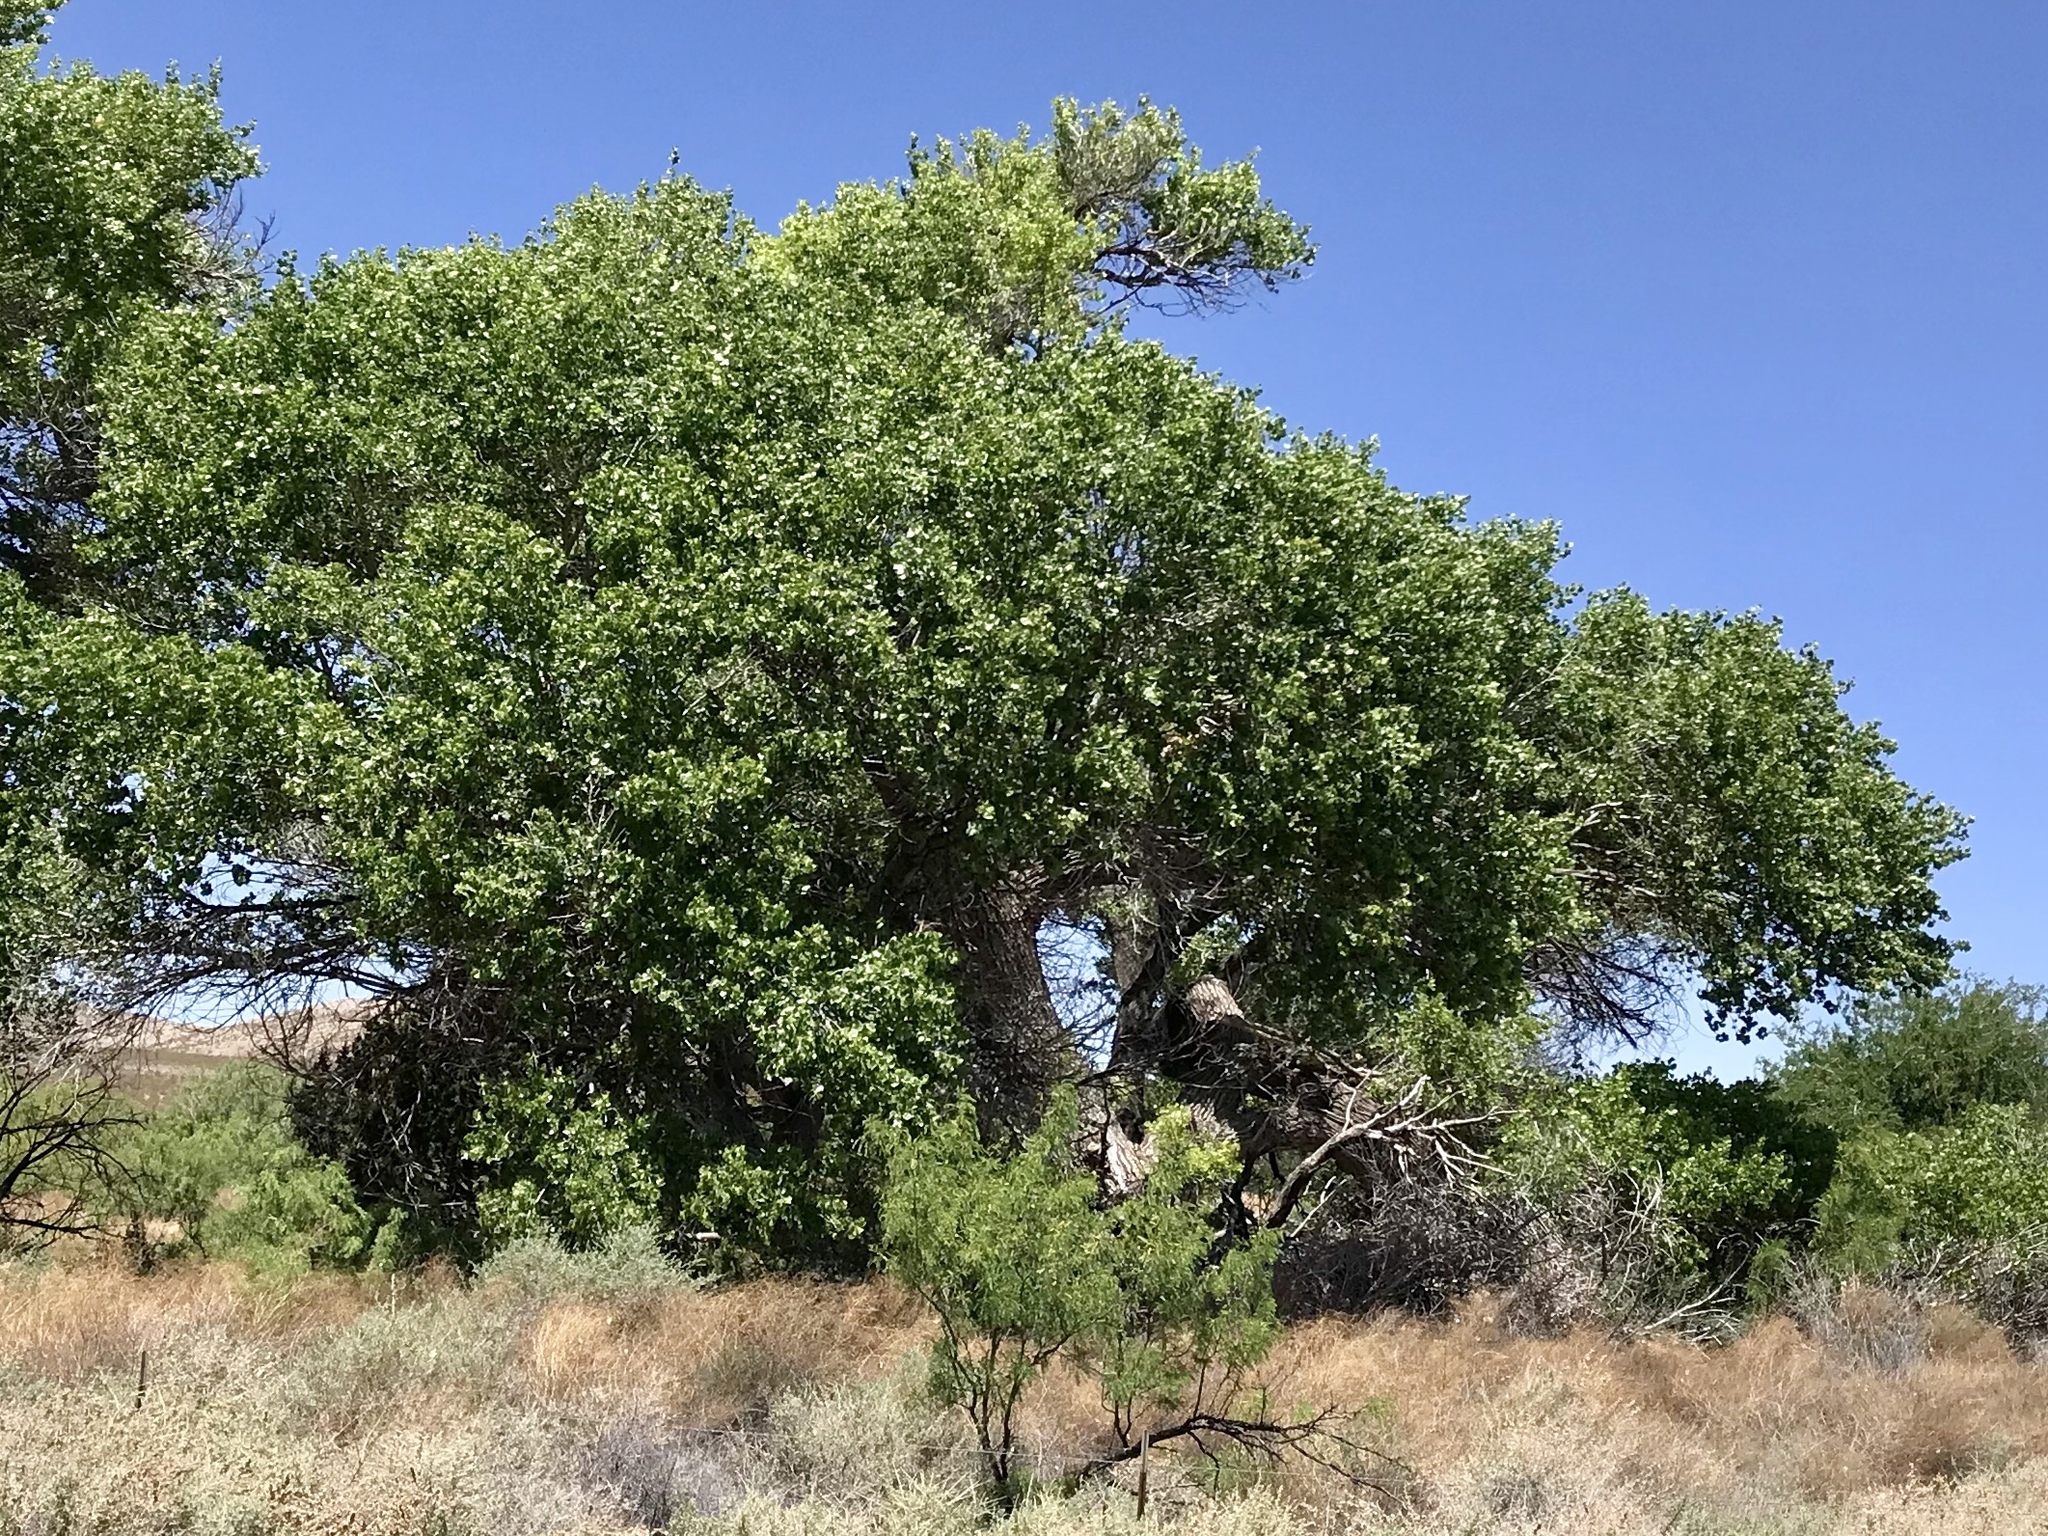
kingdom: Plantae
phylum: Tracheophyta
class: Magnoliopsida
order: Malpighiales
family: Salicaceae
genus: Populus
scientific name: Populus fremontii
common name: Fremont's cottonwood
